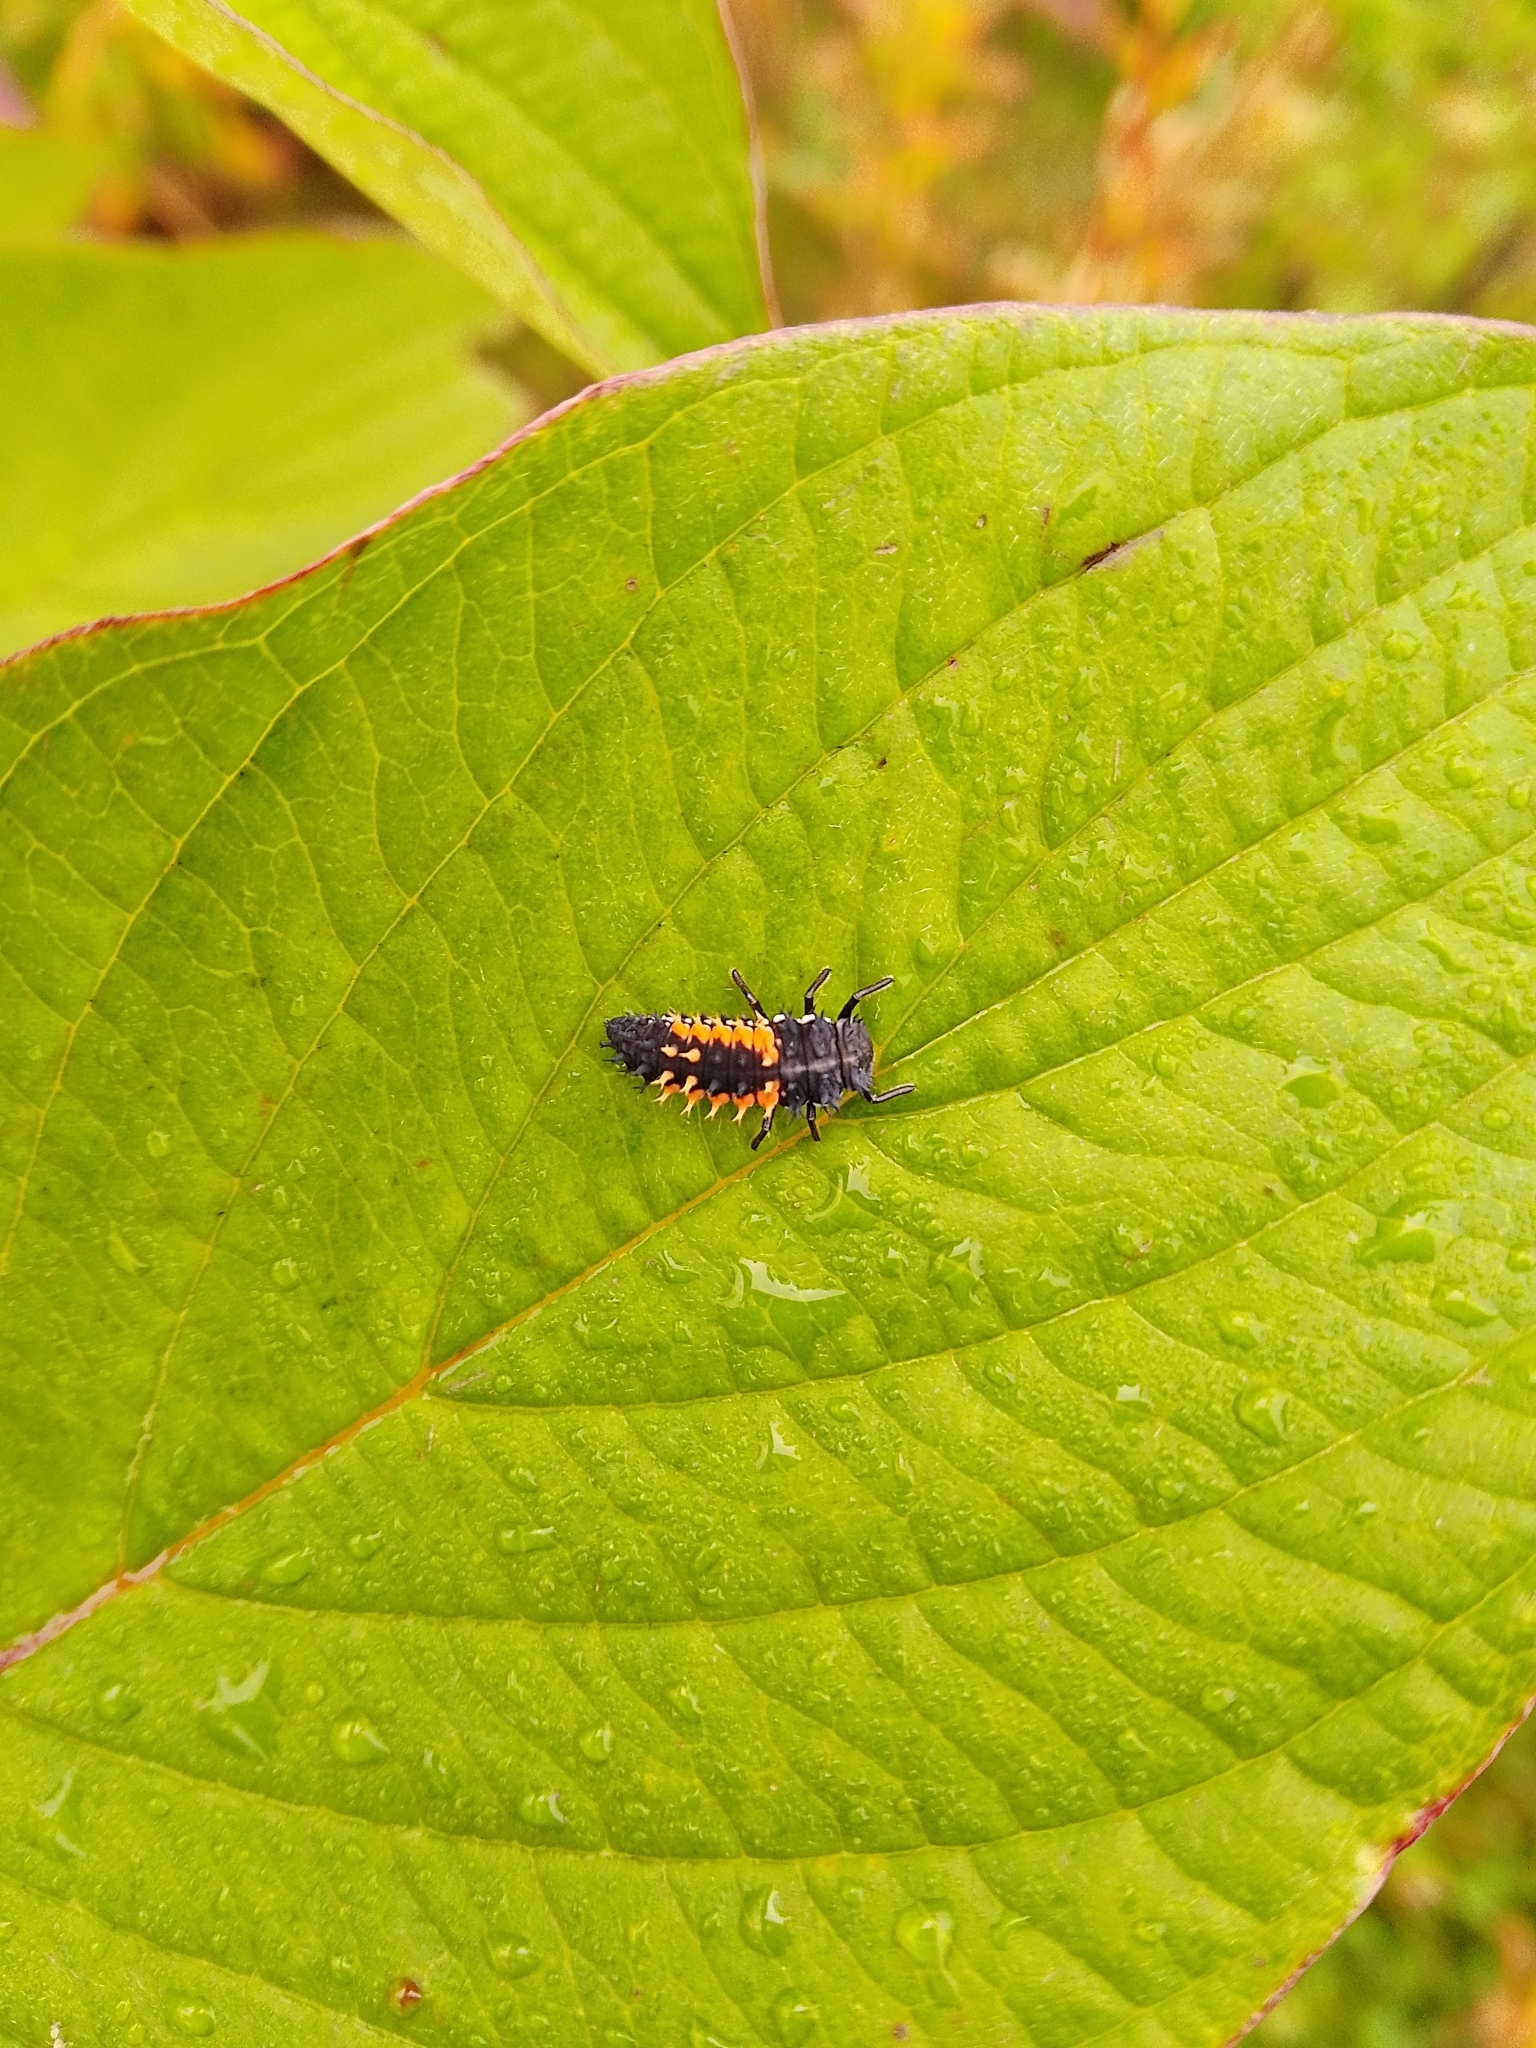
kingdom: Animalia
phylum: Arthropoda
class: Insecta
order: Coleoptera
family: Coccinellidae
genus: Harmonia
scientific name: Harmonia axyridis
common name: Harlequin ladybird
